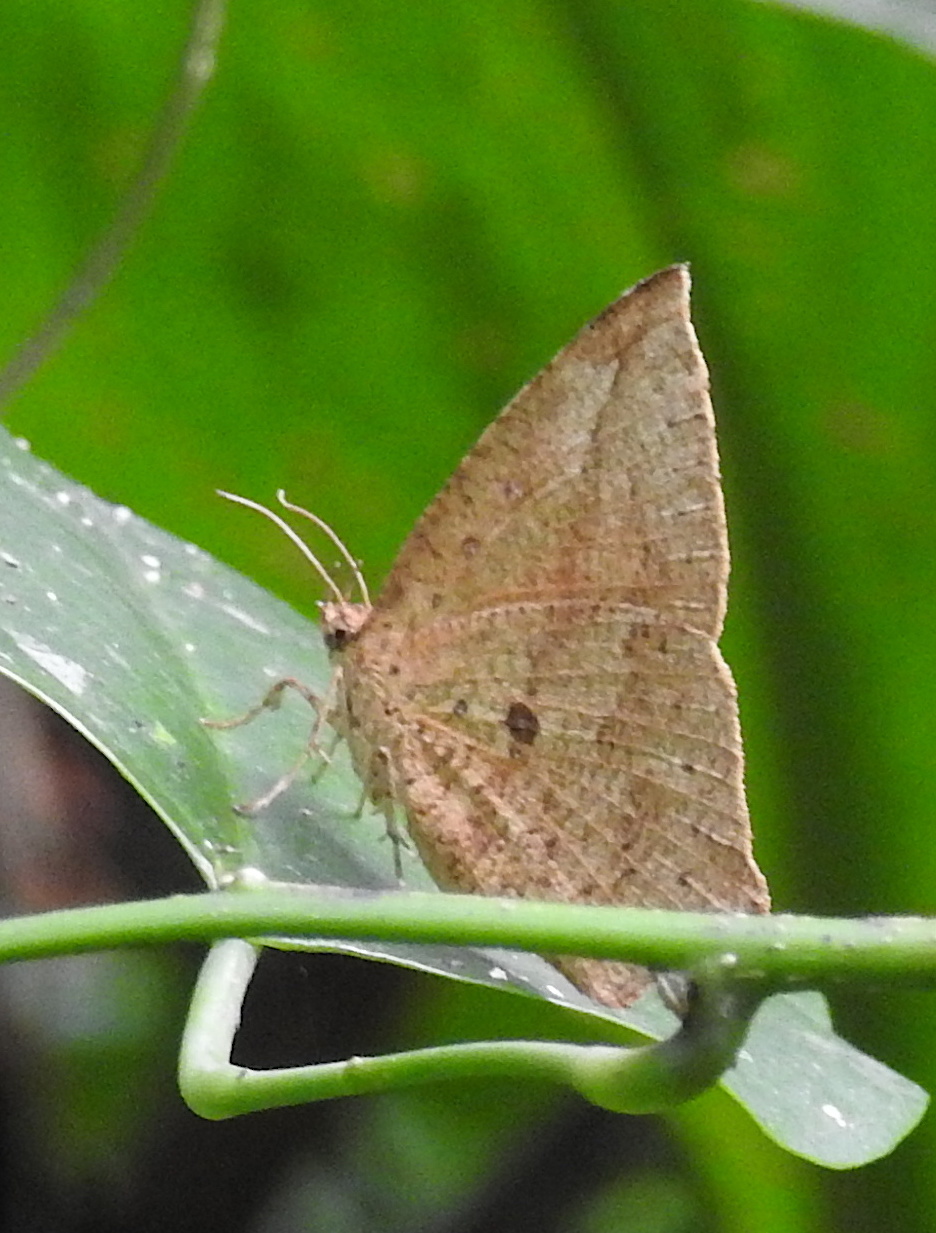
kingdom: Animalia
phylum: Arthropoda
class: Insecta
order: Lepidoptera
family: Callidulidae
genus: Tetragonus
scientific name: Tetragonus catamitus
